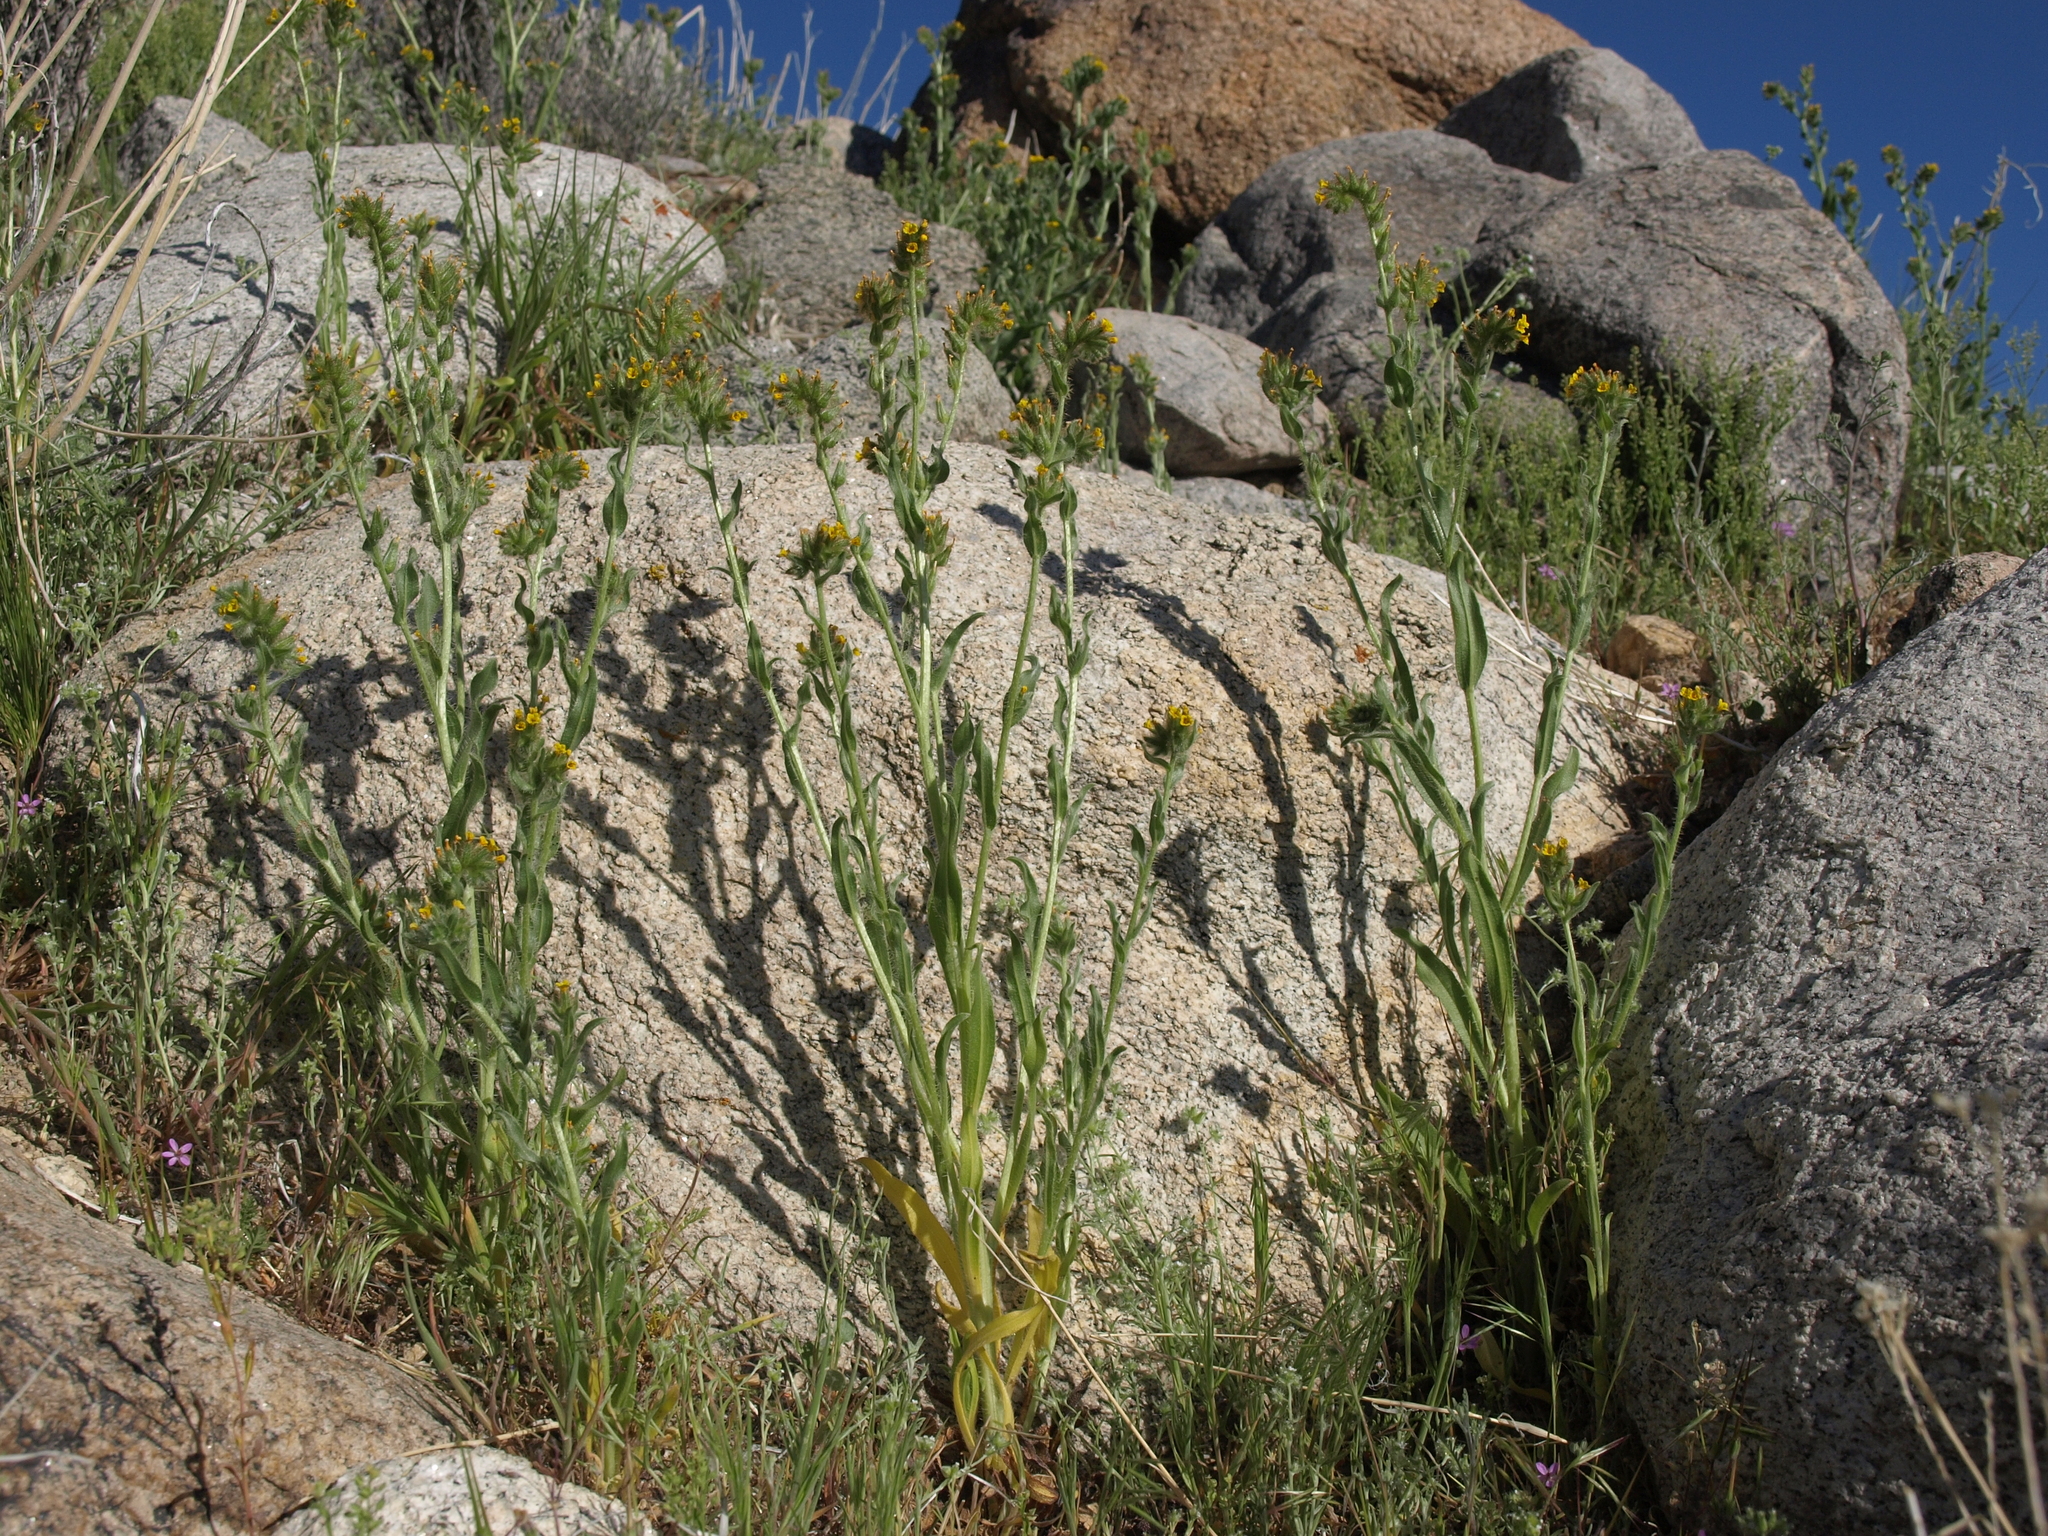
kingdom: Plantae
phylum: Tracheophyta
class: Magnoliopsida
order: Boraginales
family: Boraginaceae
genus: Amsinckia
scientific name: Amsinckia tessellata
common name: Tessellate fiddleneck
